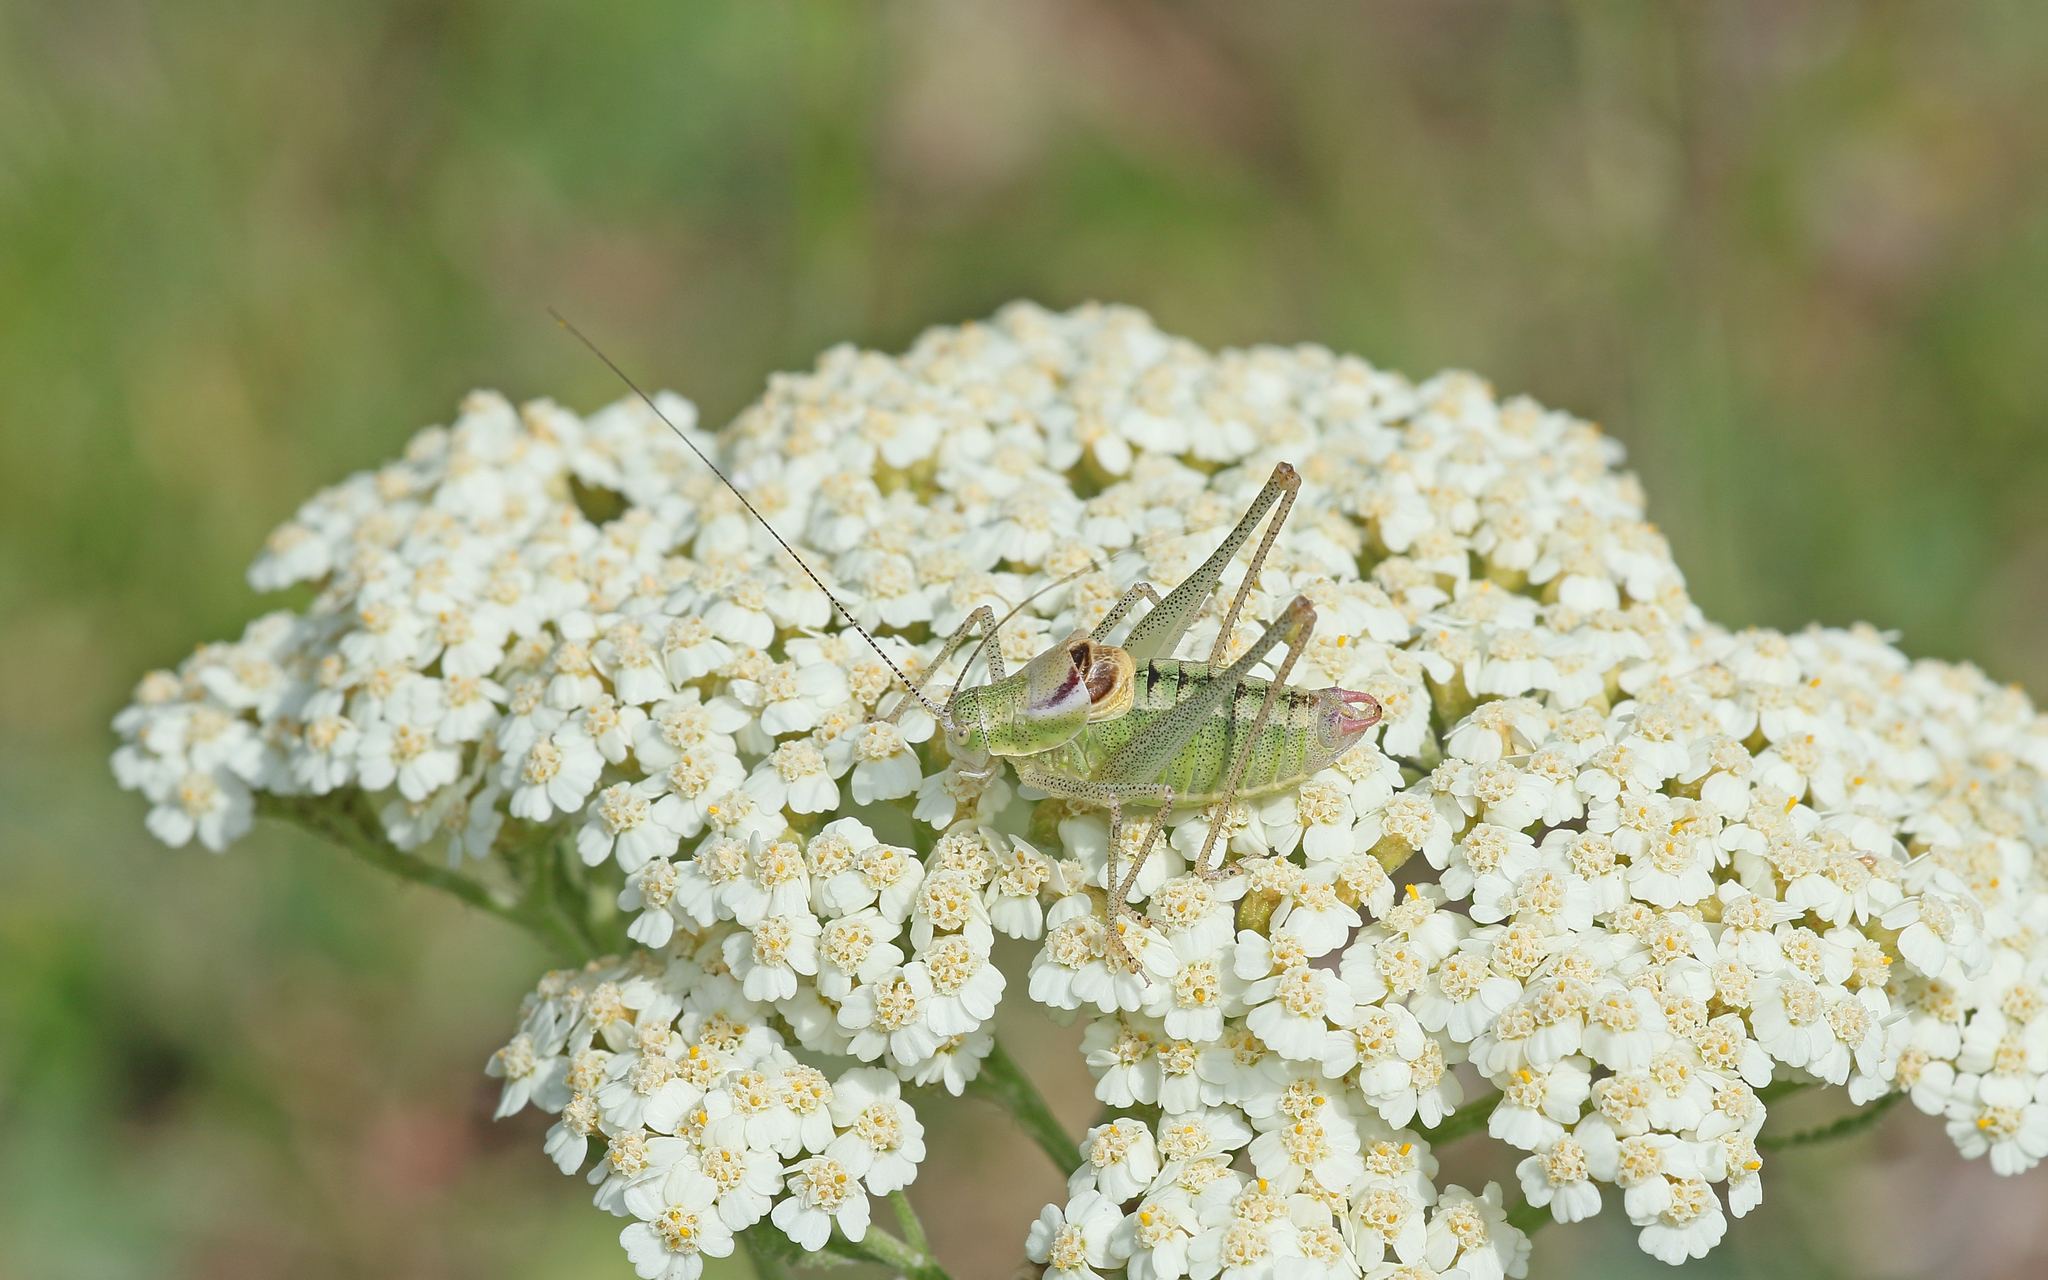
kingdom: Animalia
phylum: Arthropoda
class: Insecta
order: Orthoptera
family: Tettigoniidae
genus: Poecilimon
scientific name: Poecilimon orbelicus
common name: Orbelicos bright bush-cricket
